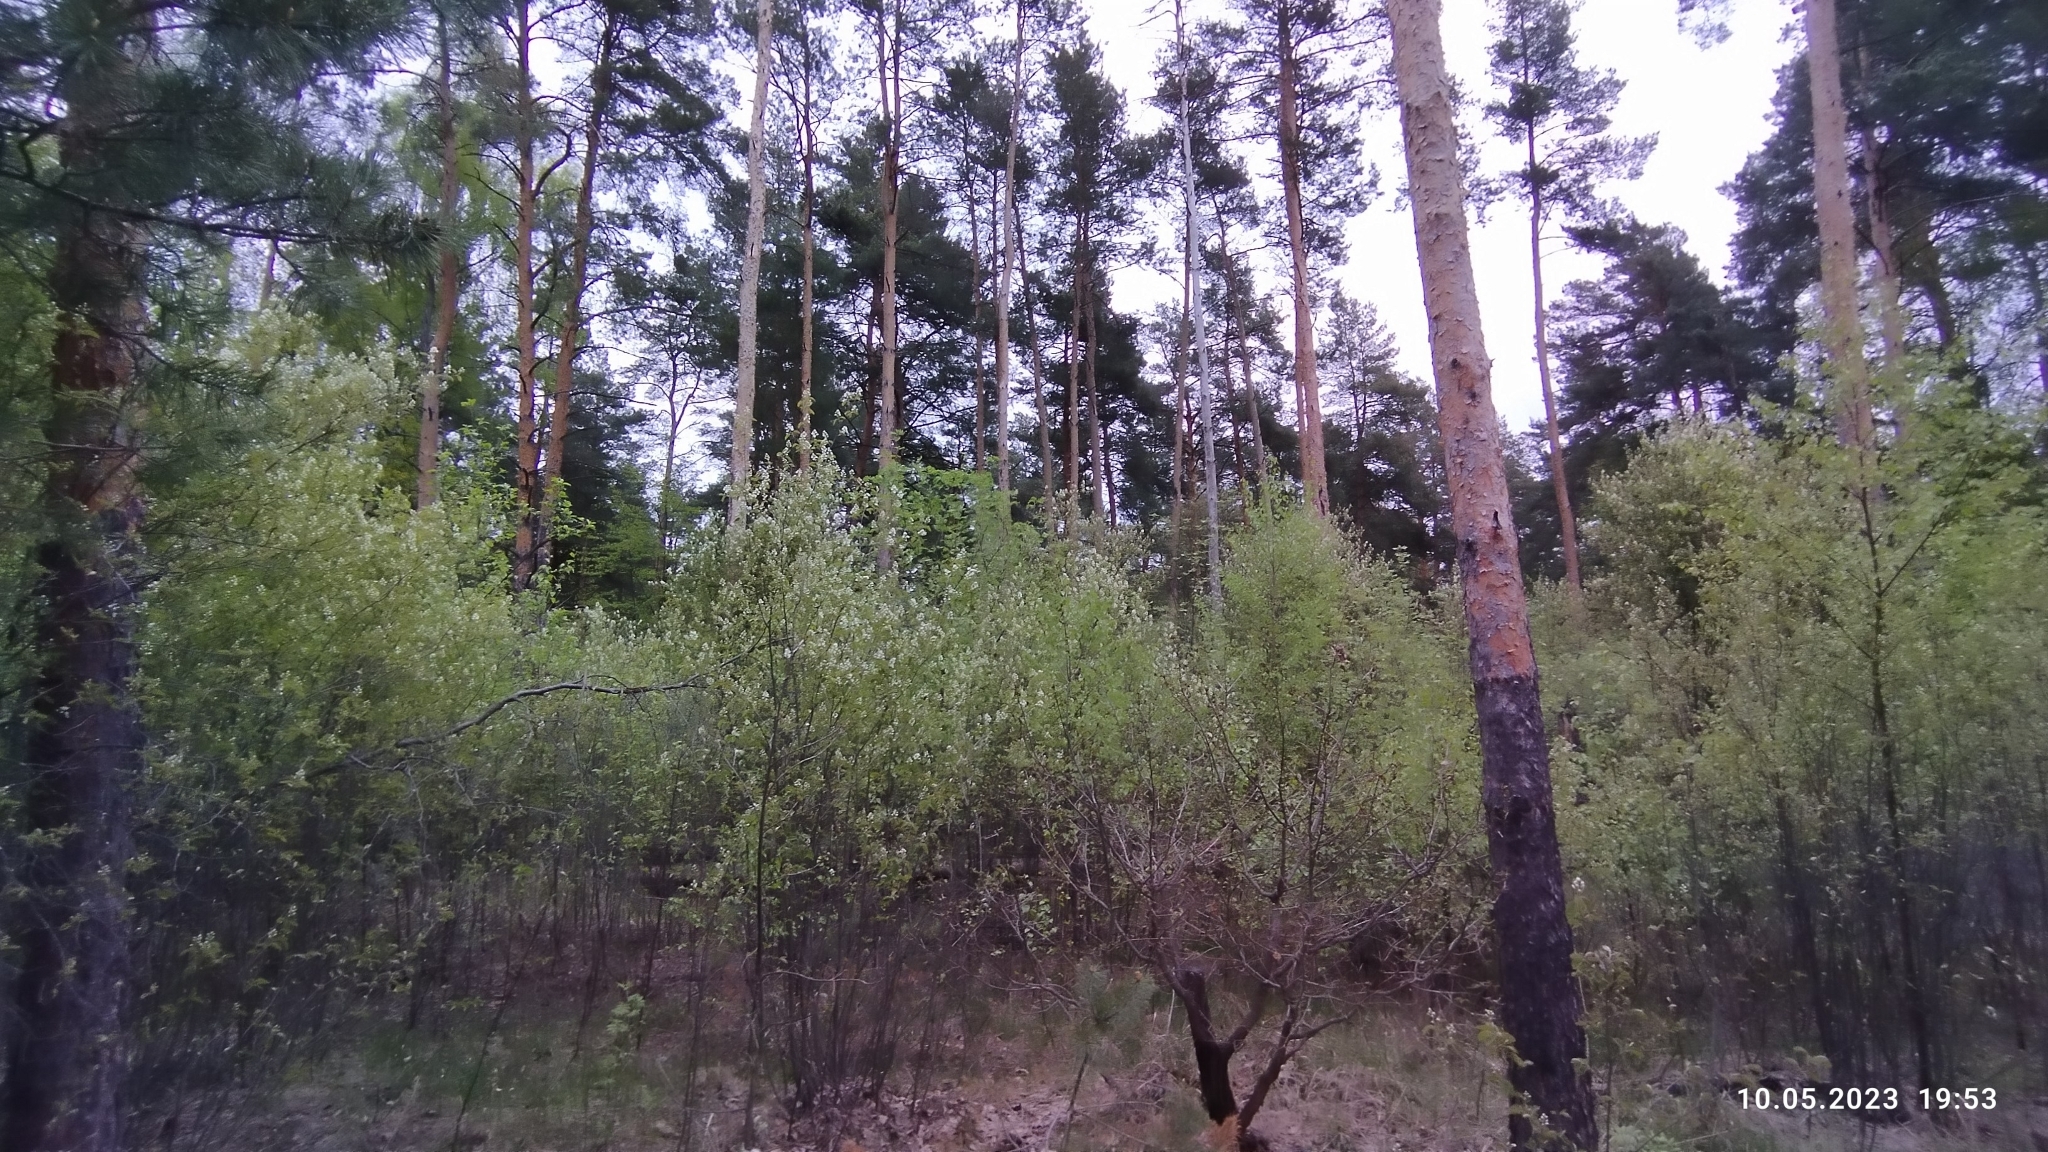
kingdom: Plantae
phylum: Tracheophyta
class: Magnoliopsida
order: Rosales
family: Rosaceae
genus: Amelanchier
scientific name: Amelanchier
